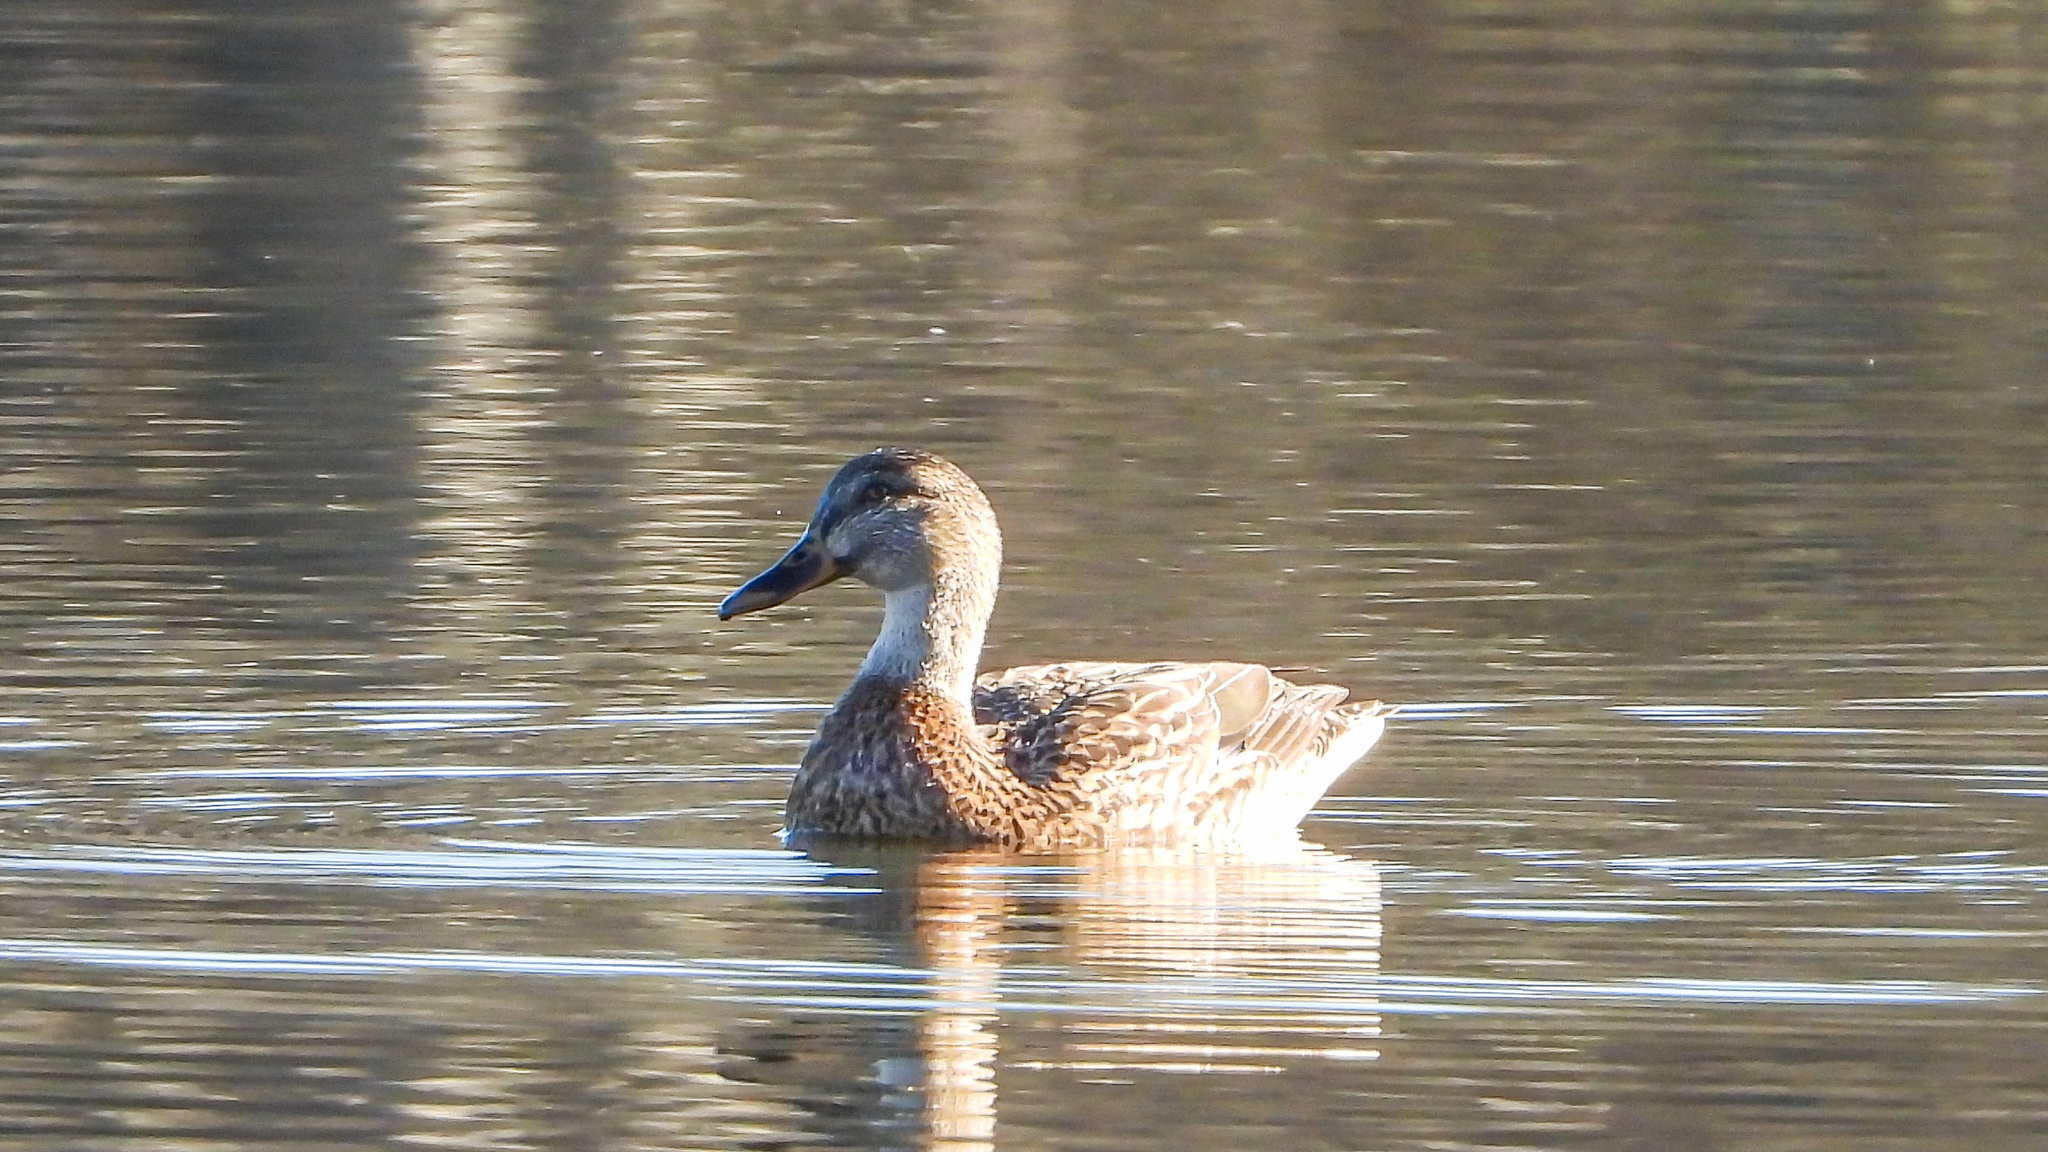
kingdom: Animalia
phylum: Chordata
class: Aves
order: Anseriformes
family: Anatidae
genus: Anas
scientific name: Anas platyrhynchos
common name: Mallard
